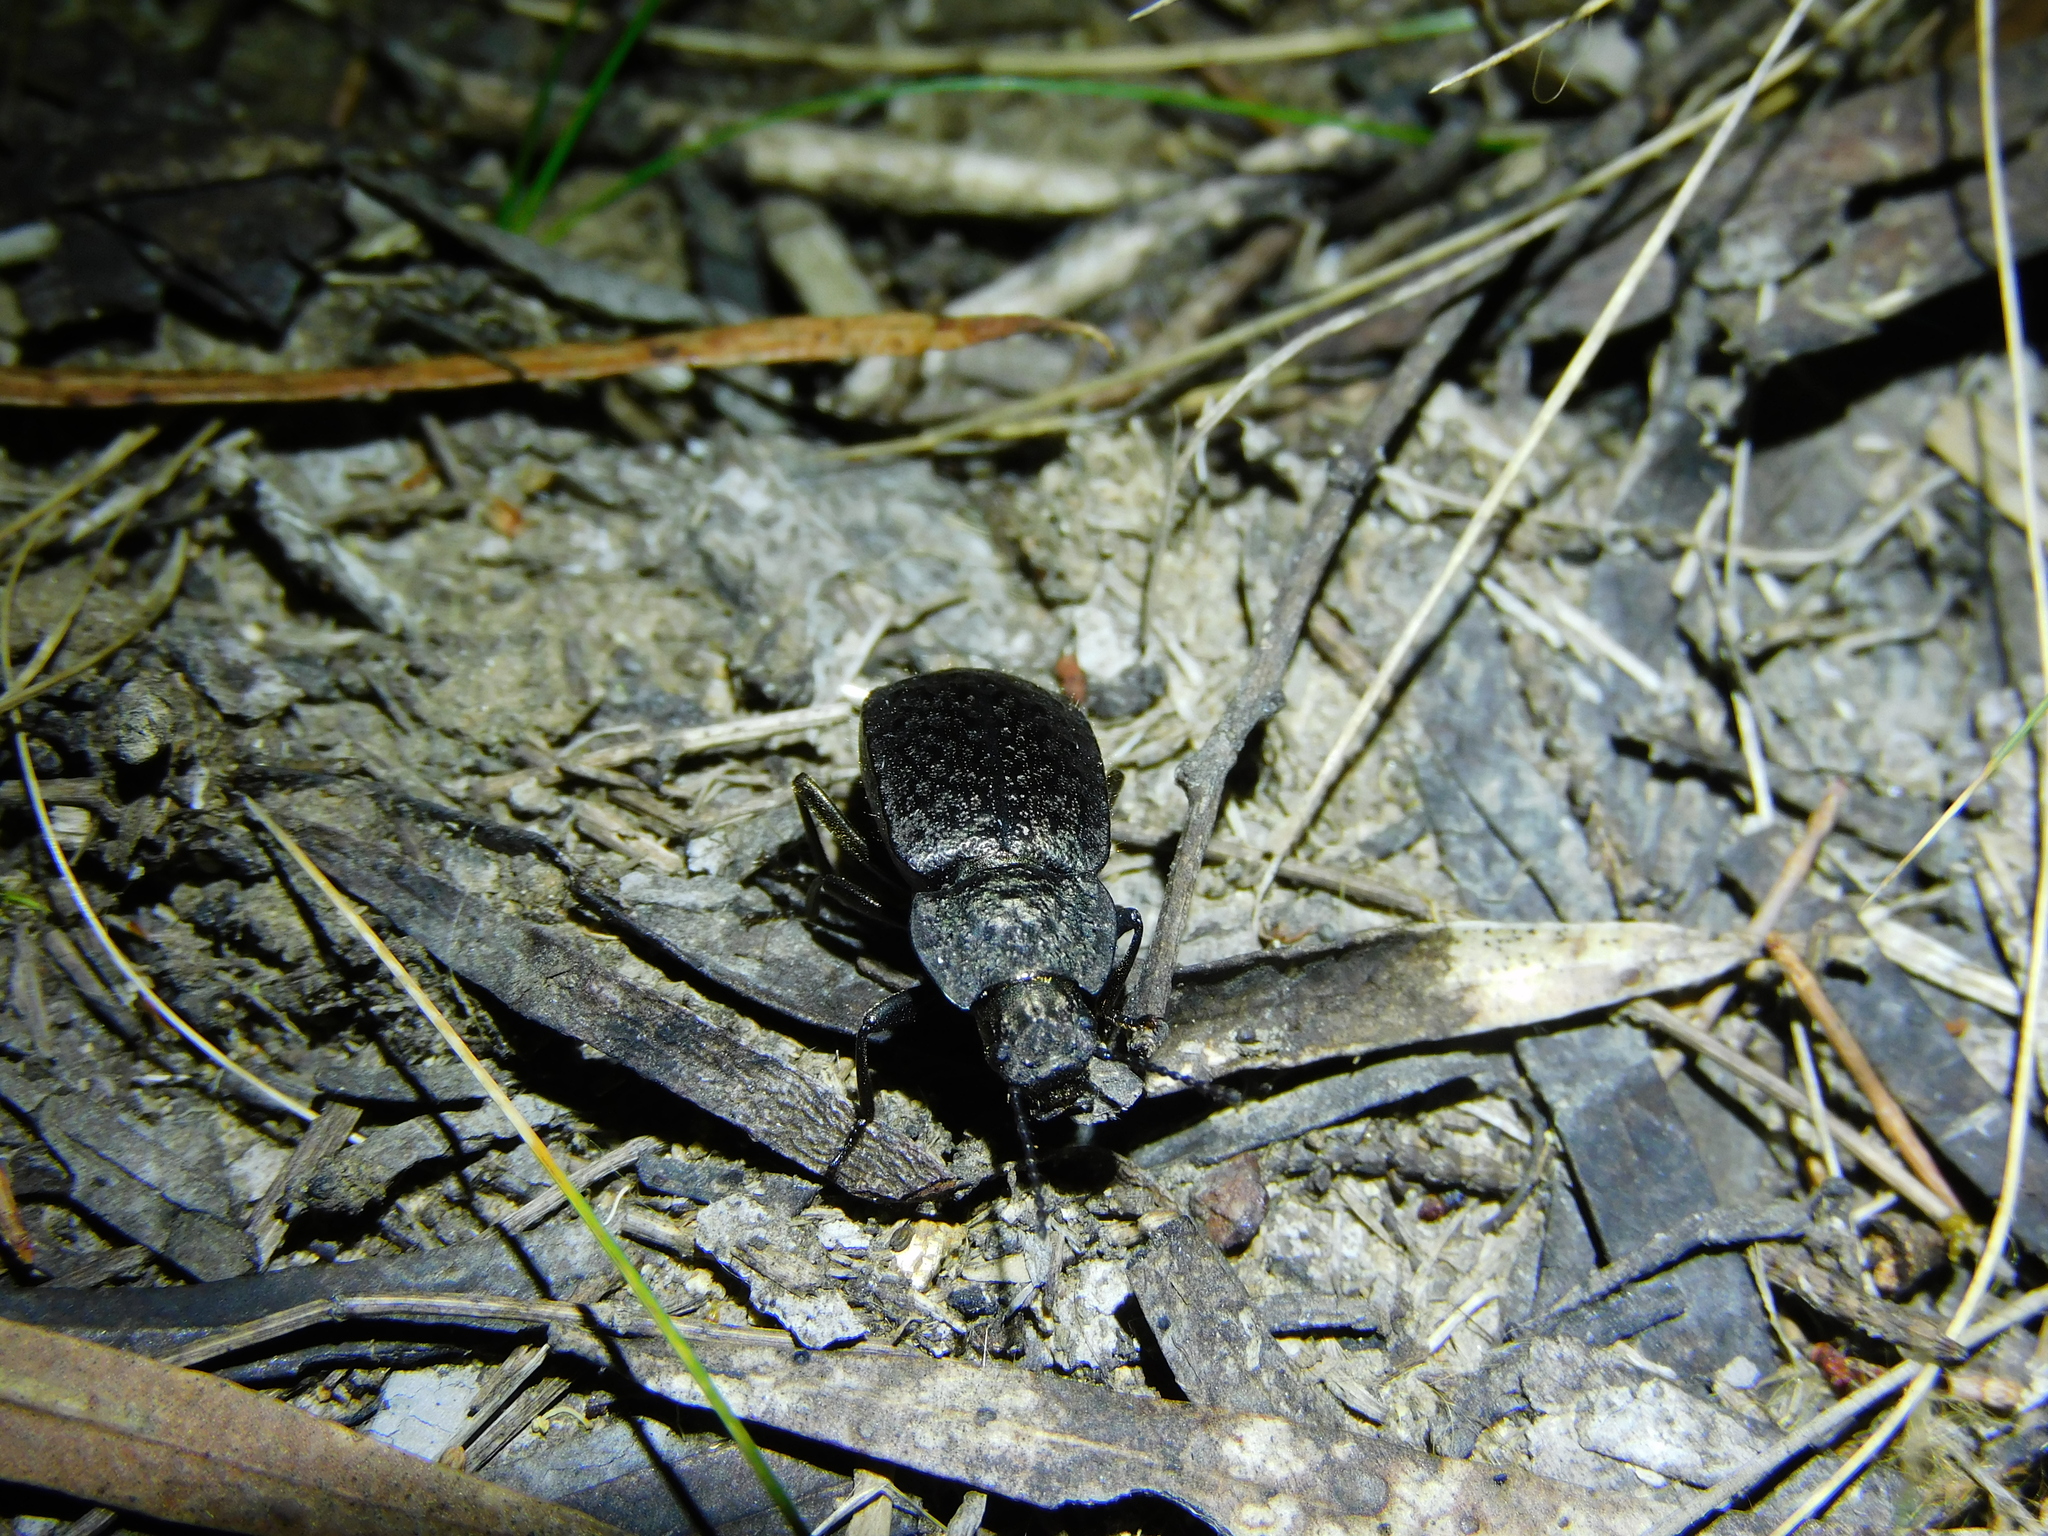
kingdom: Animalia
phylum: Arthropoda
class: Insecta
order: Coleoptera
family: Tenebrionidae
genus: Coripera
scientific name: Coripera deplanata
